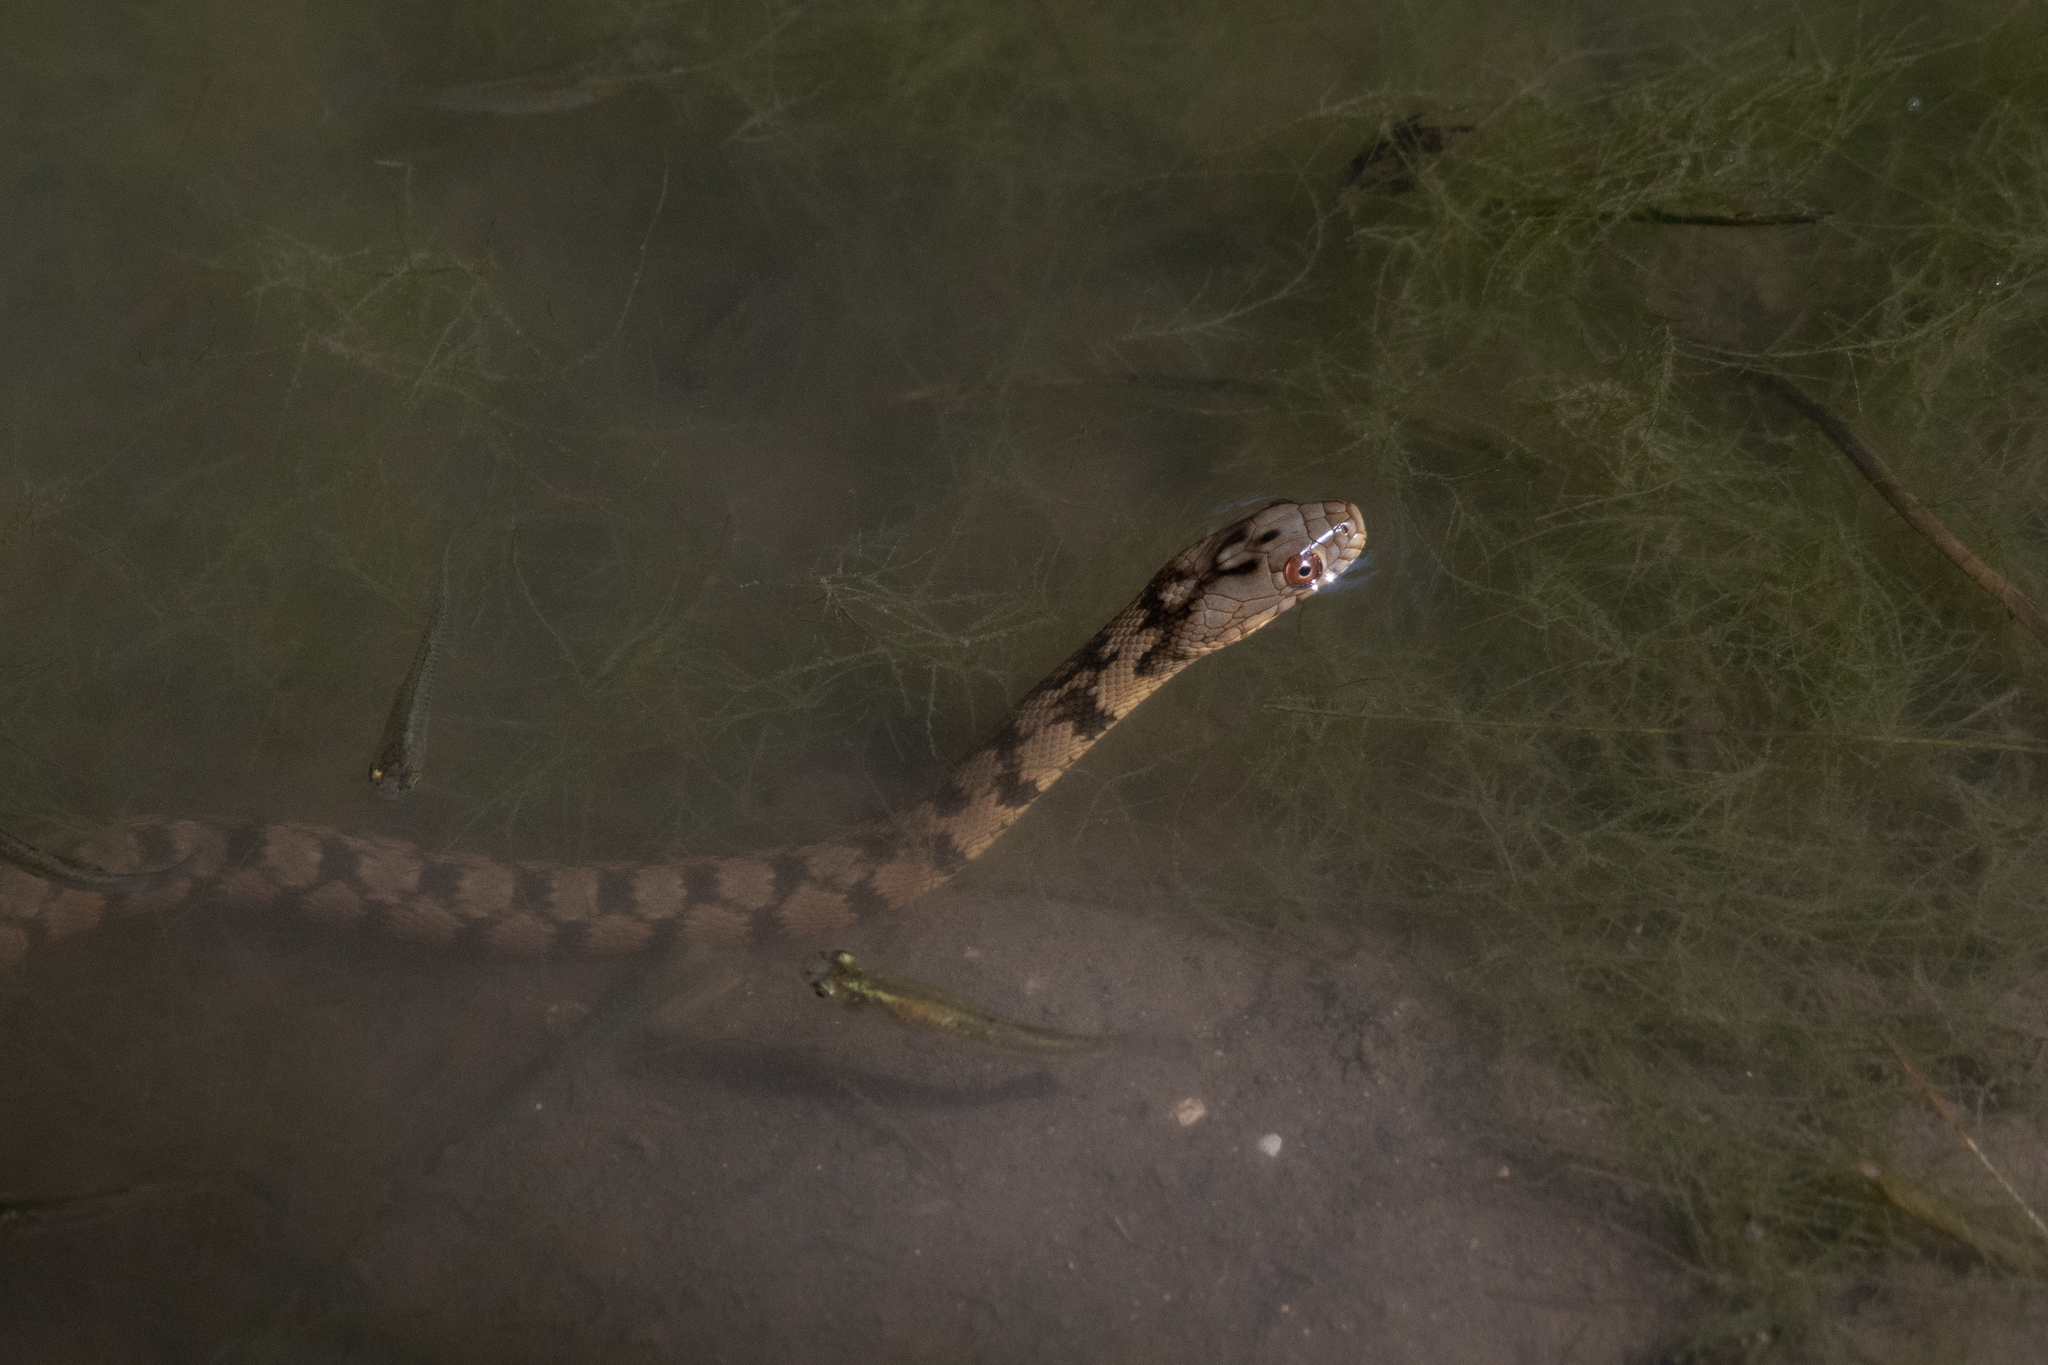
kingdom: Animalia
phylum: Chordata
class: Squamata
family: Colubridae
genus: Nerodia
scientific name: Nerodia rhombifer
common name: Diamondback water snake
